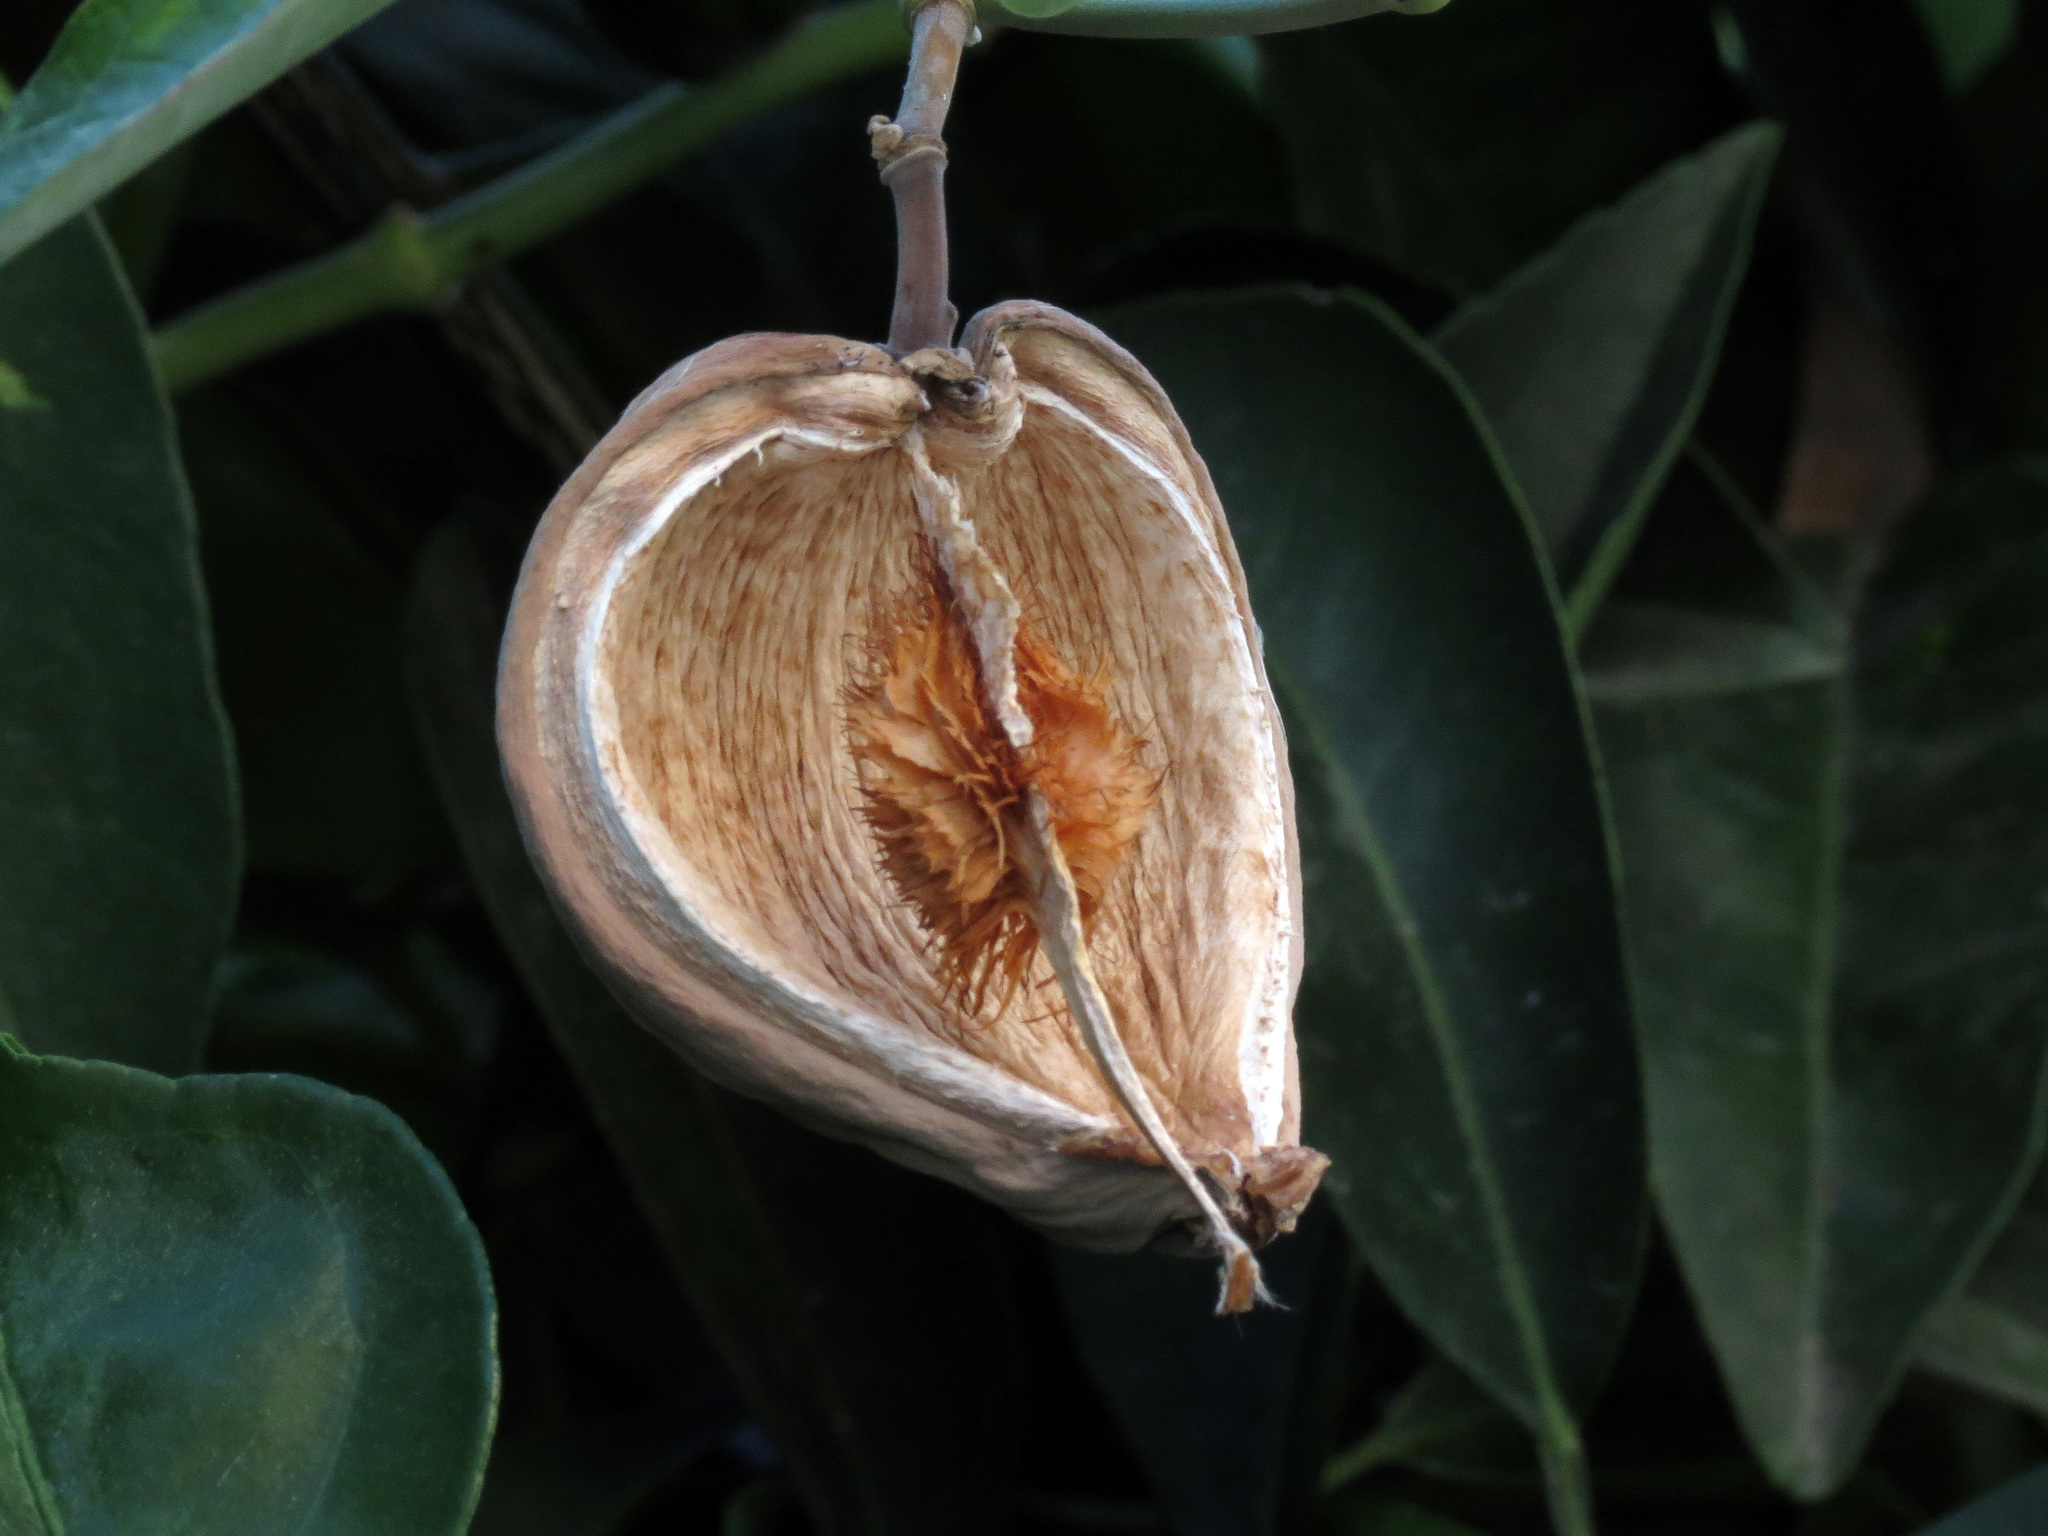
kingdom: Plantae
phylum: Tracheophyta
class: Magnoliopsida
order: Gentianales
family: Apocynaceae
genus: Araujia
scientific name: Araujia sericifera
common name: White bladderflower
